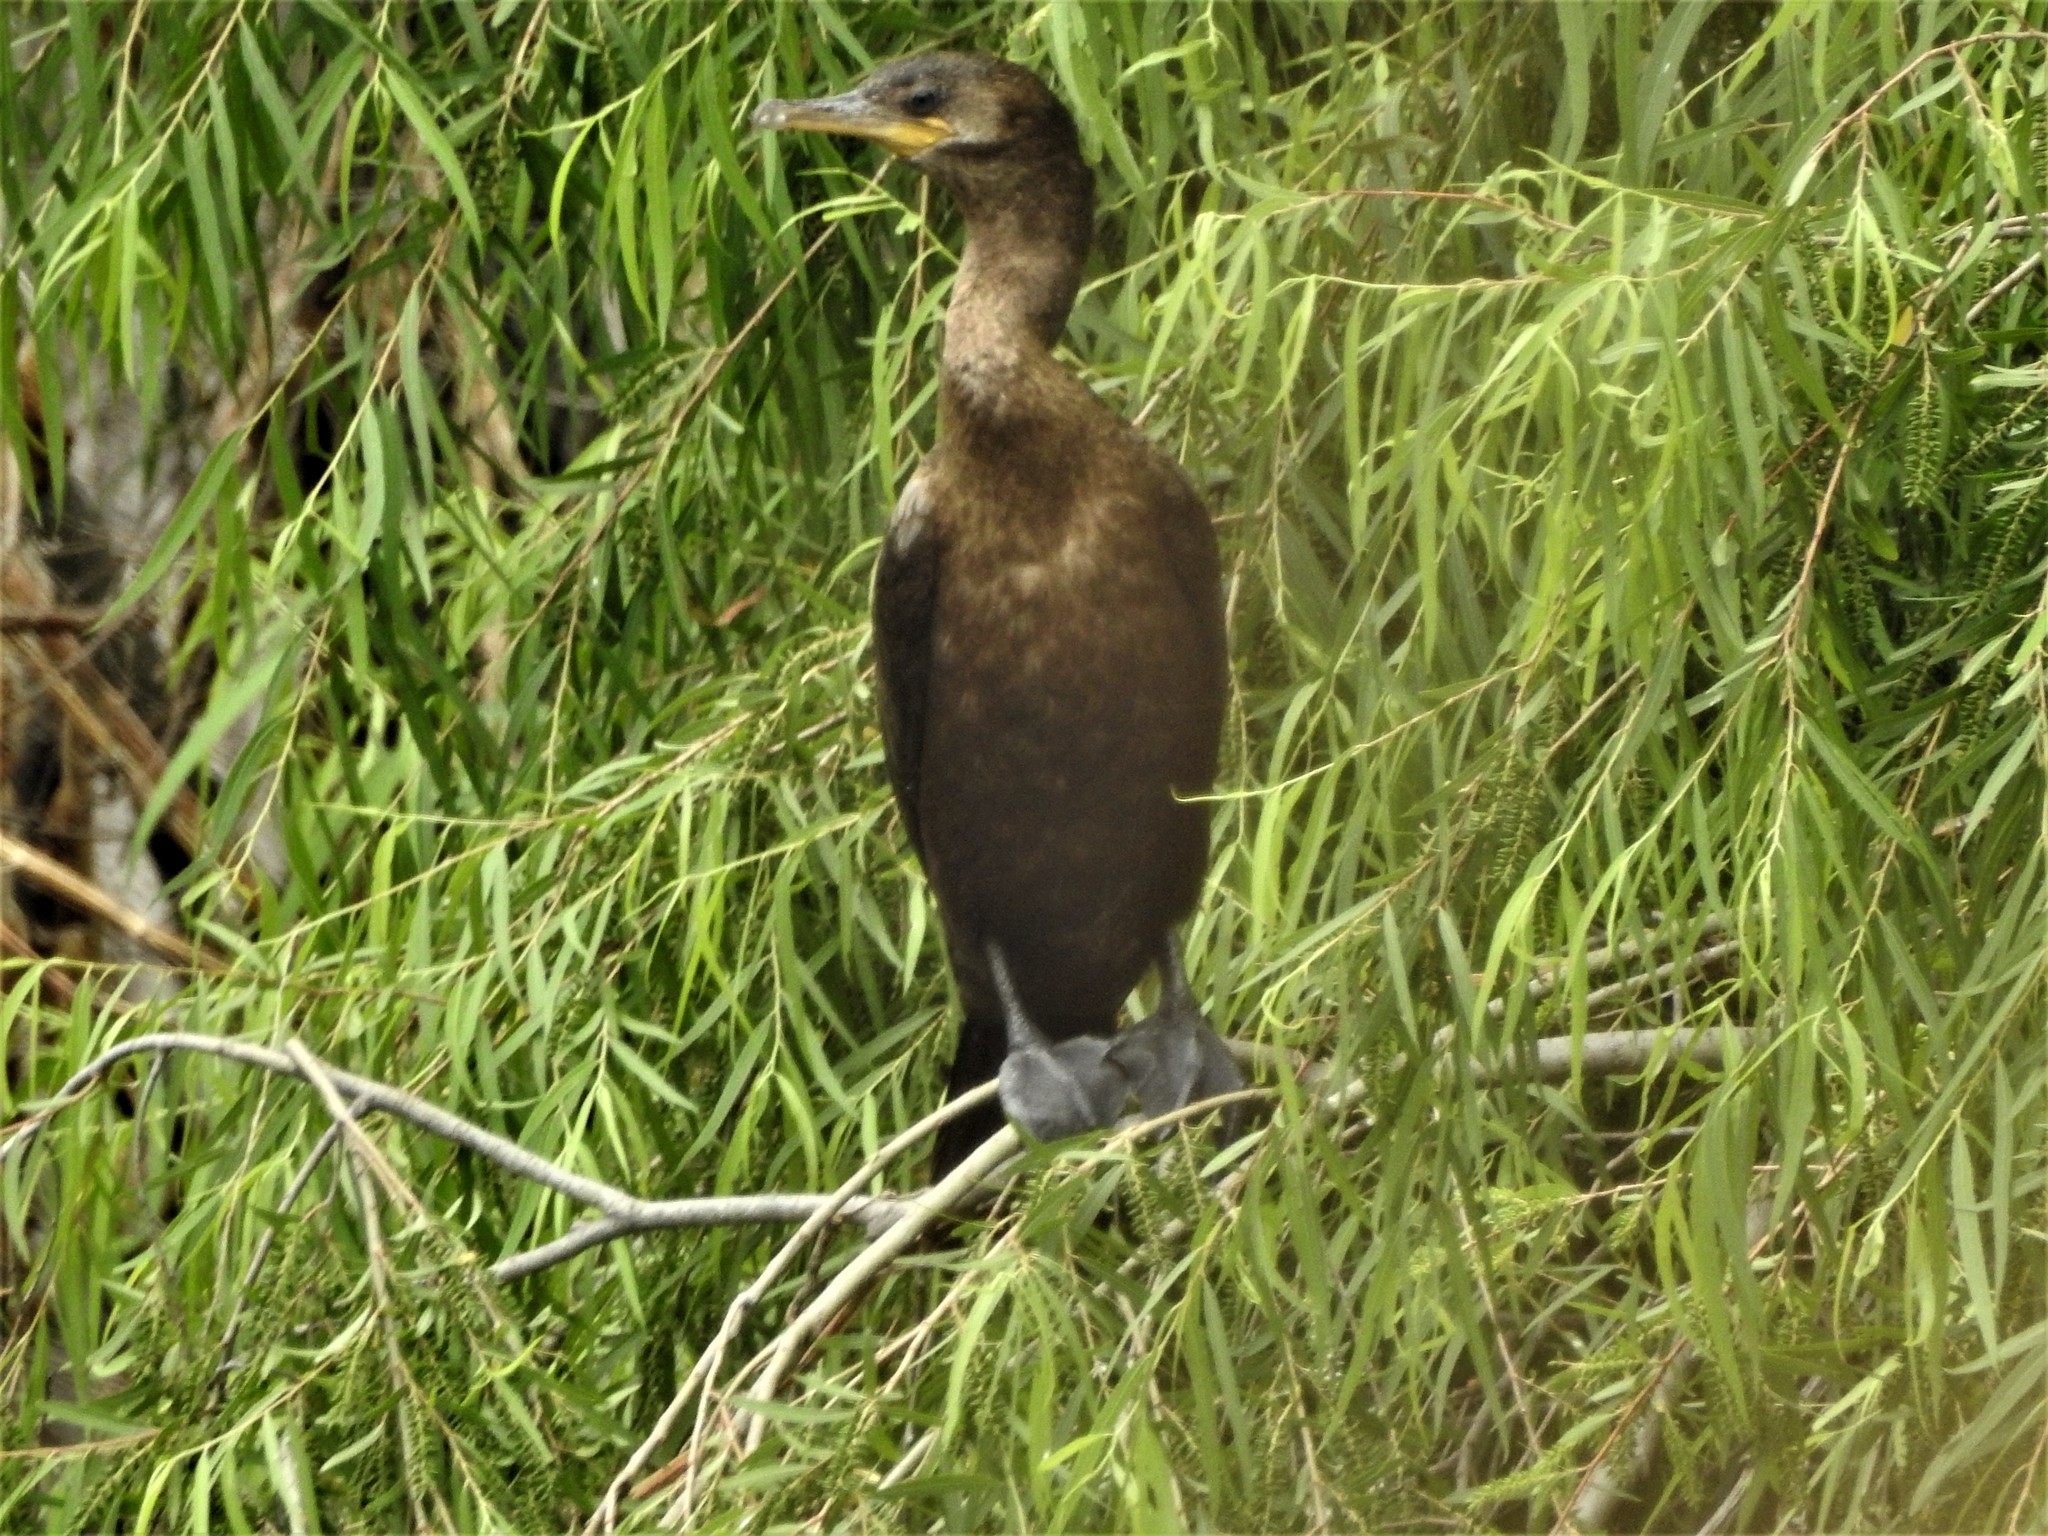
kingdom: Animalia
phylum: Chordata
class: Aves
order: Suliformes
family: Phalacrocoracidae
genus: Phalacrocorax
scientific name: Phalacrocorax brasilianus
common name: Neotropic cormorant
